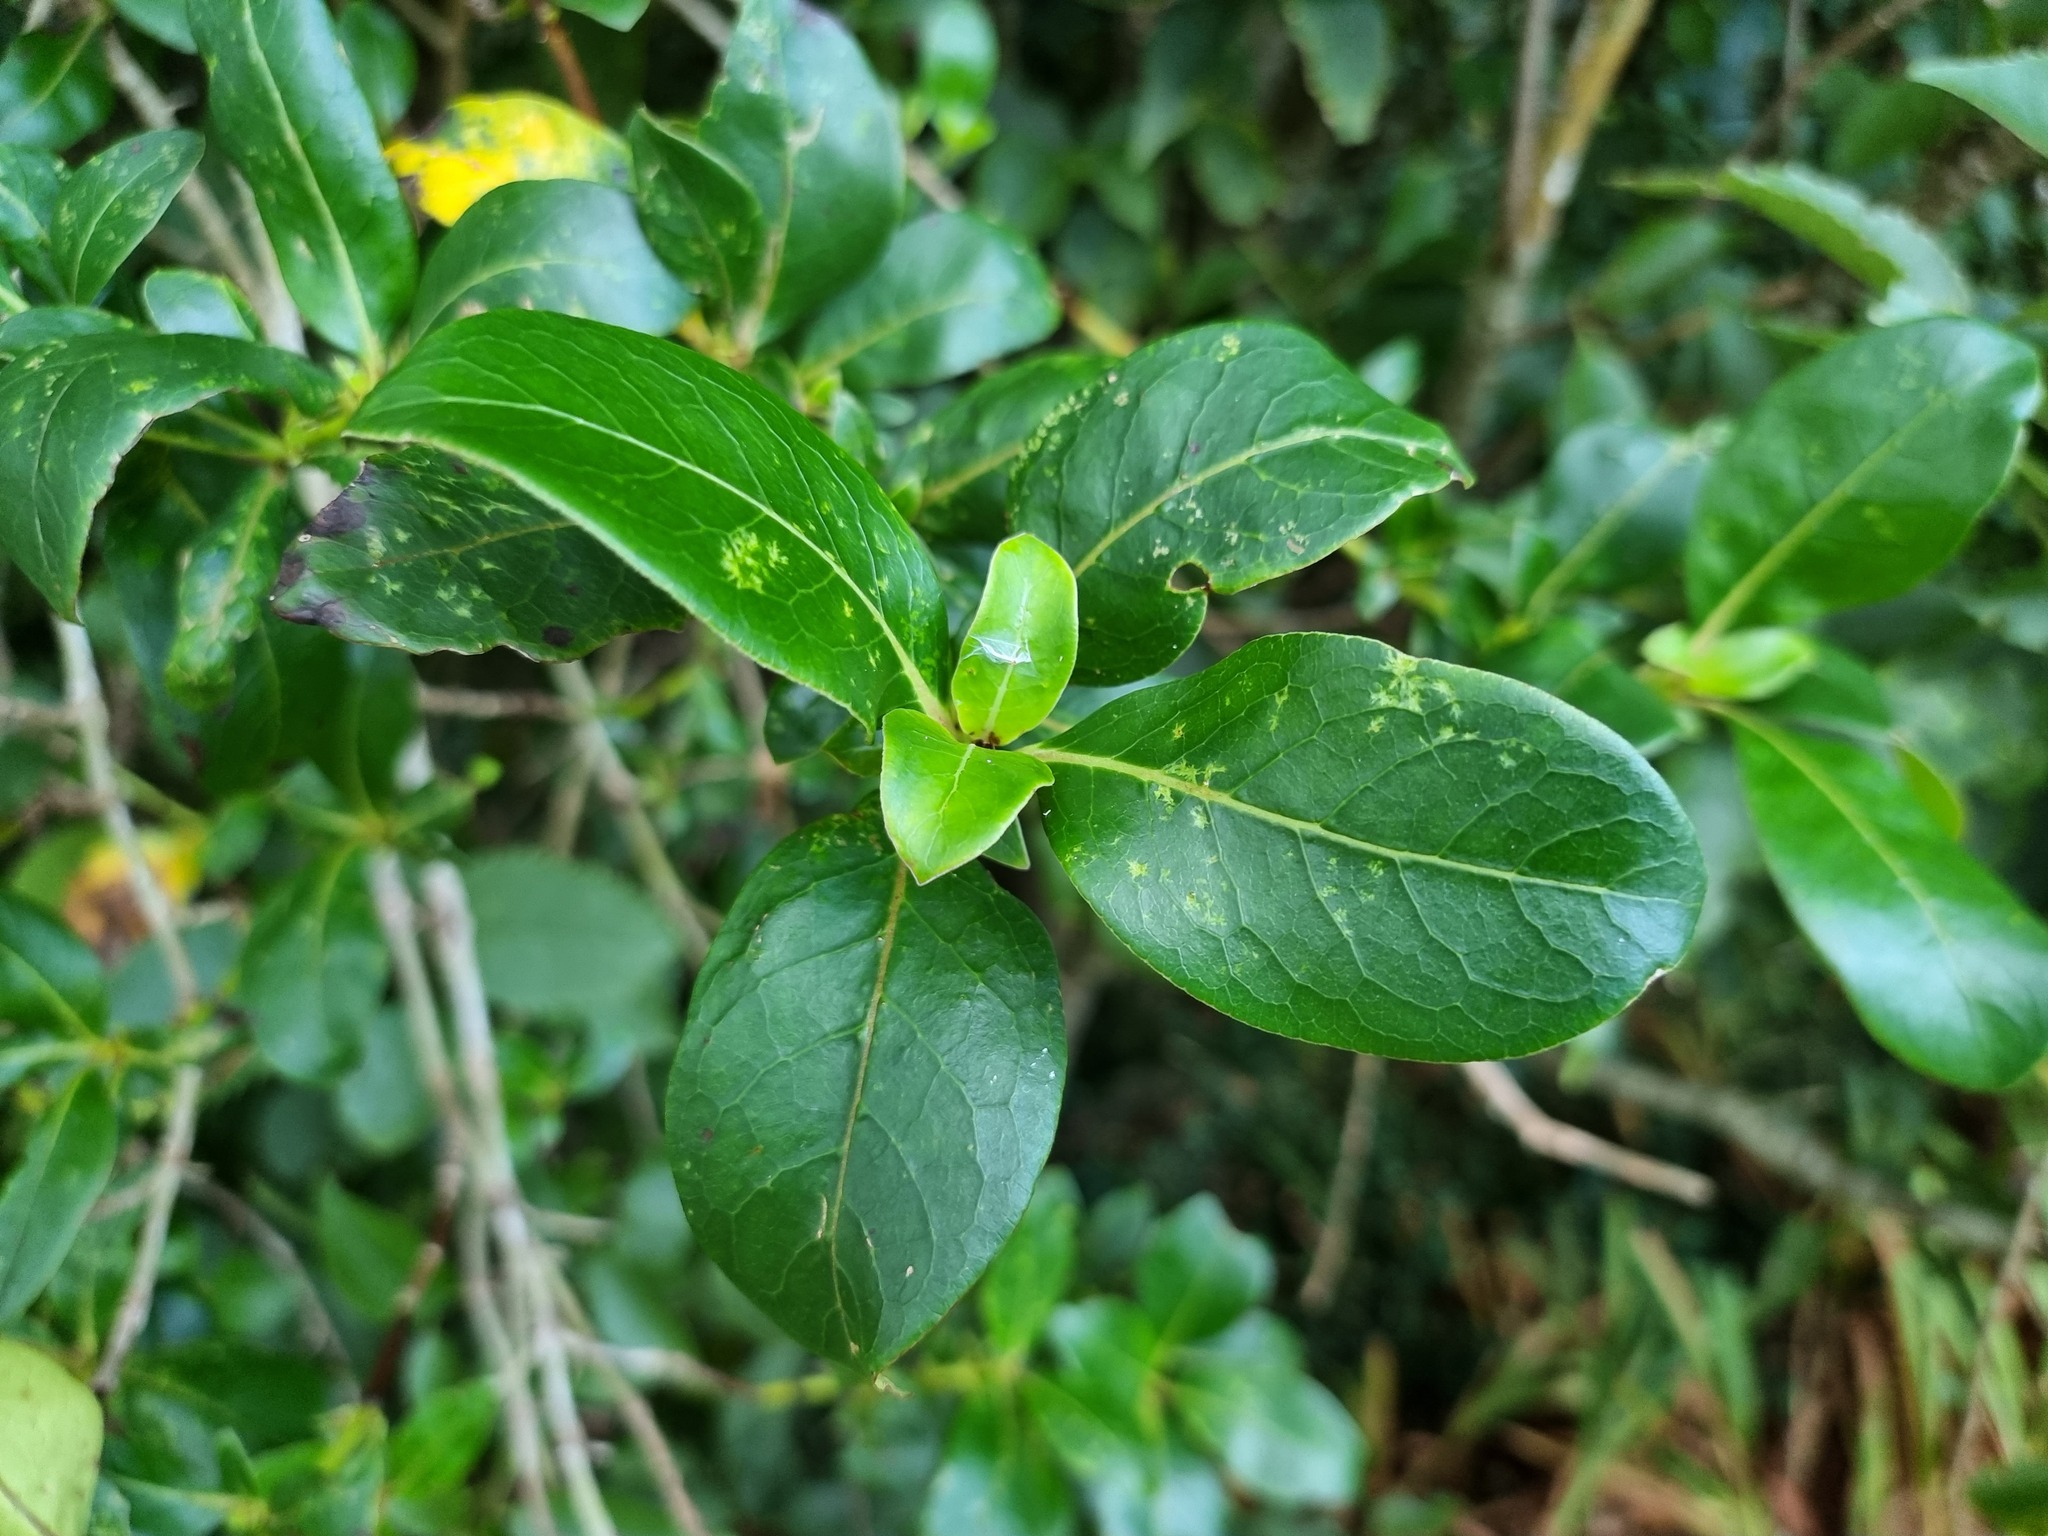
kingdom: Plantae
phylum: Tracheophyta
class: Magnoliopsida
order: Gentianales
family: Rubiaceae
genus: Coprosma
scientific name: Coprosma robusta
